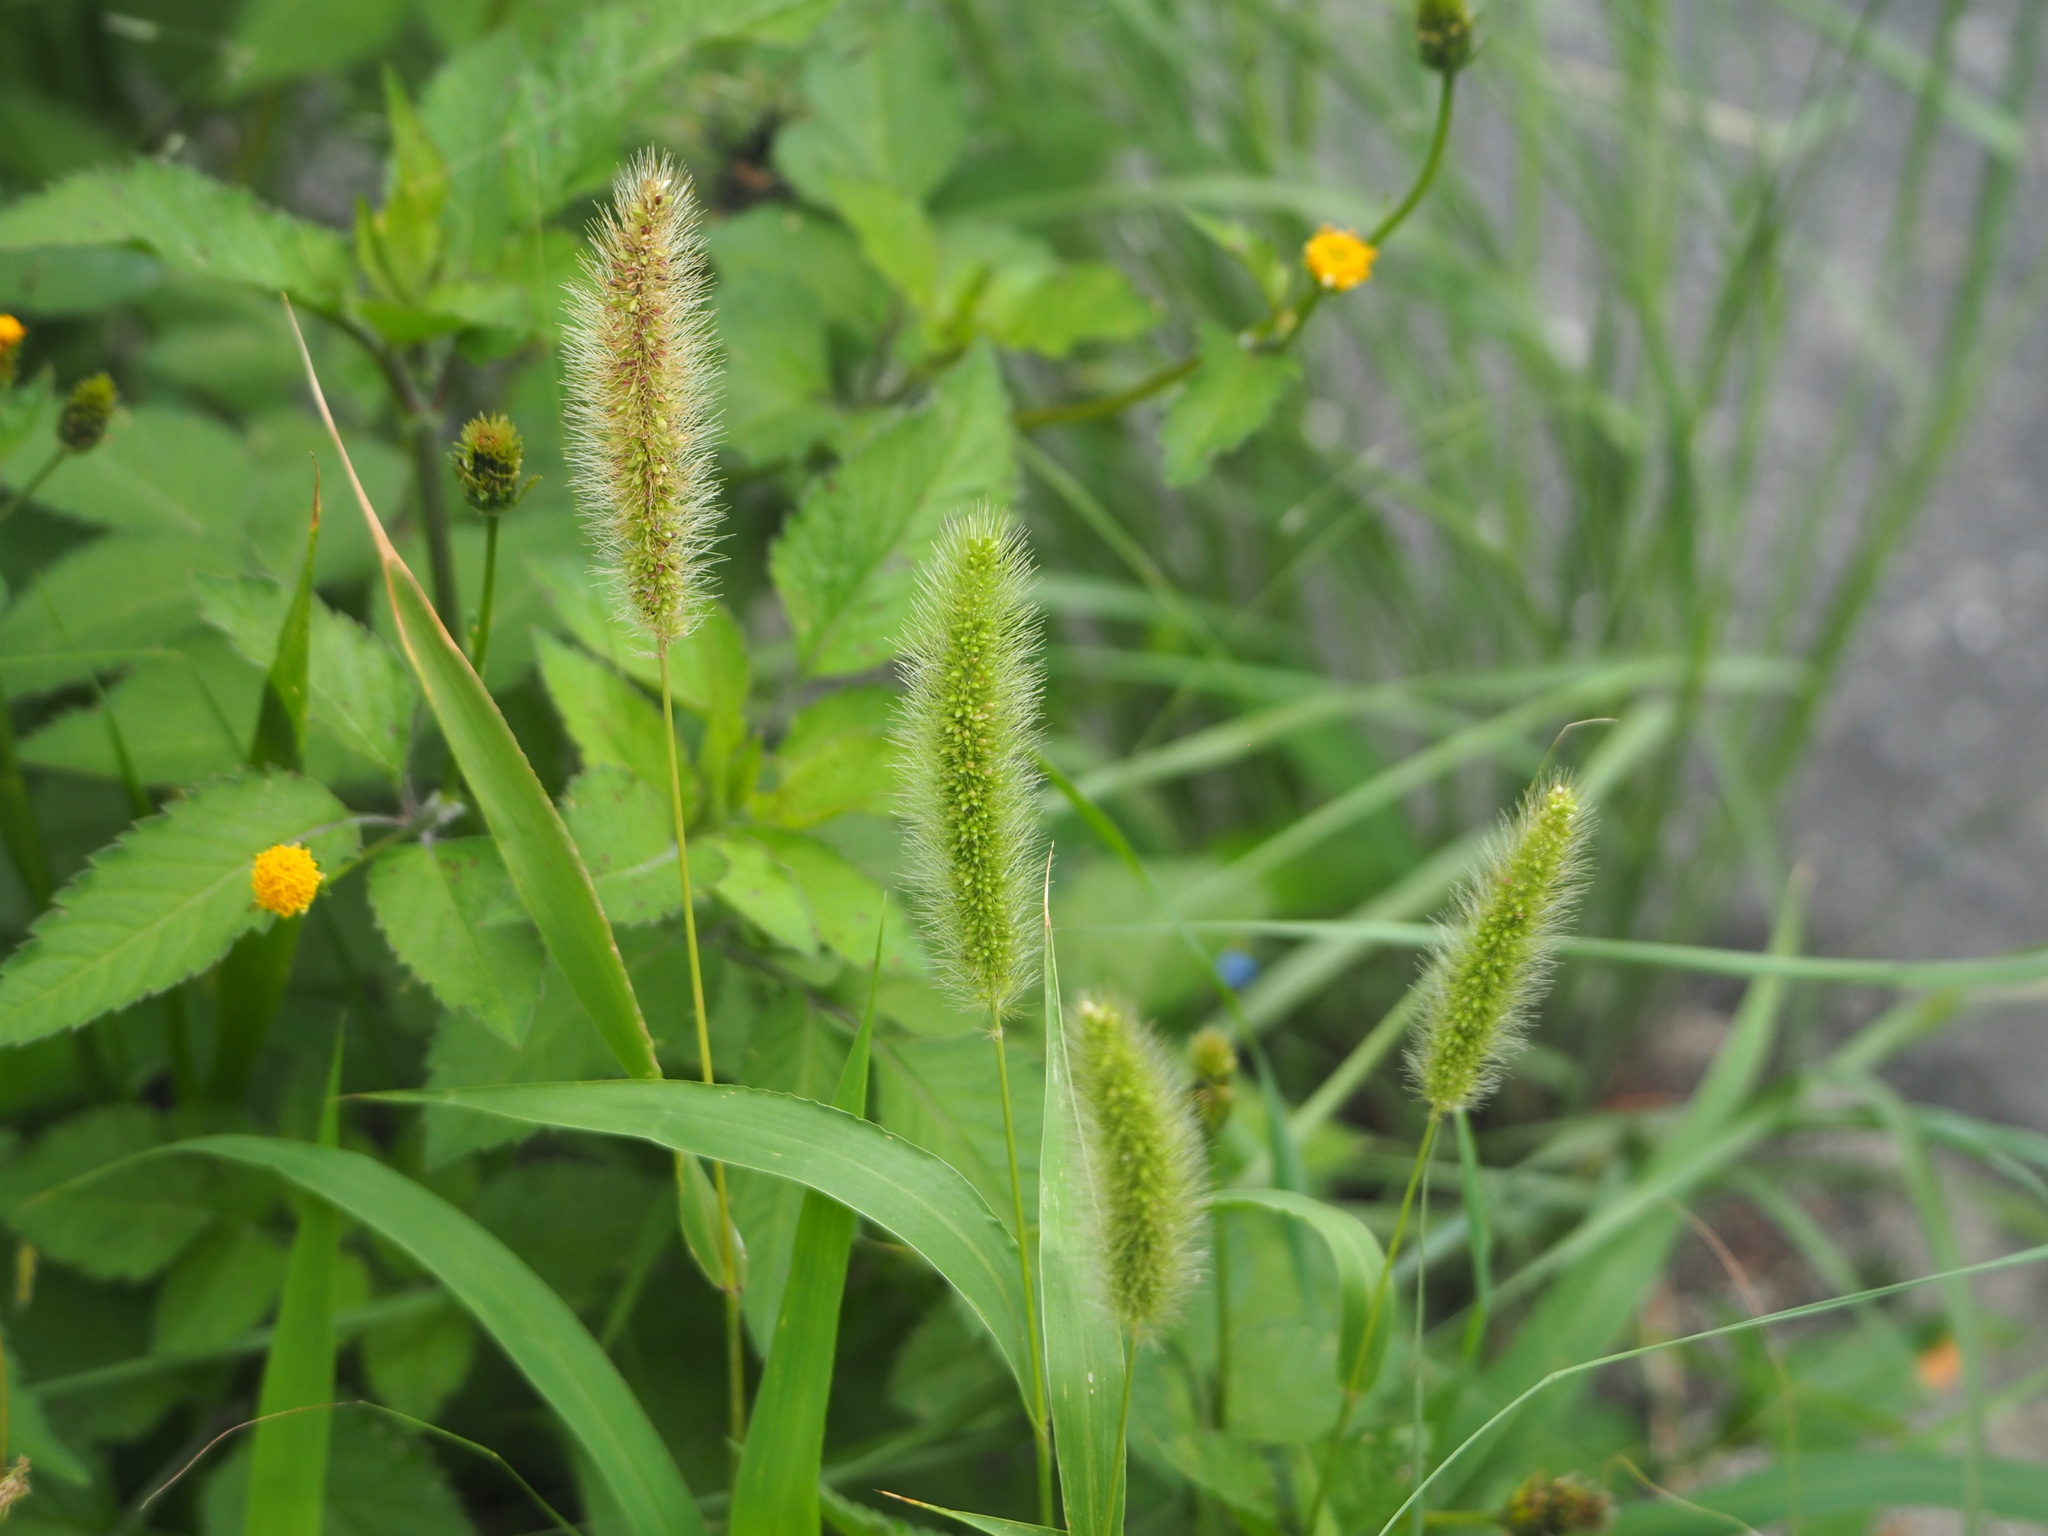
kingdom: Plantae
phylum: Tracheophyta
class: Liliopsida
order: Poales
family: Poaceae
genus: Setaria
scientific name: Setaria viridis
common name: Green bristlegrass
